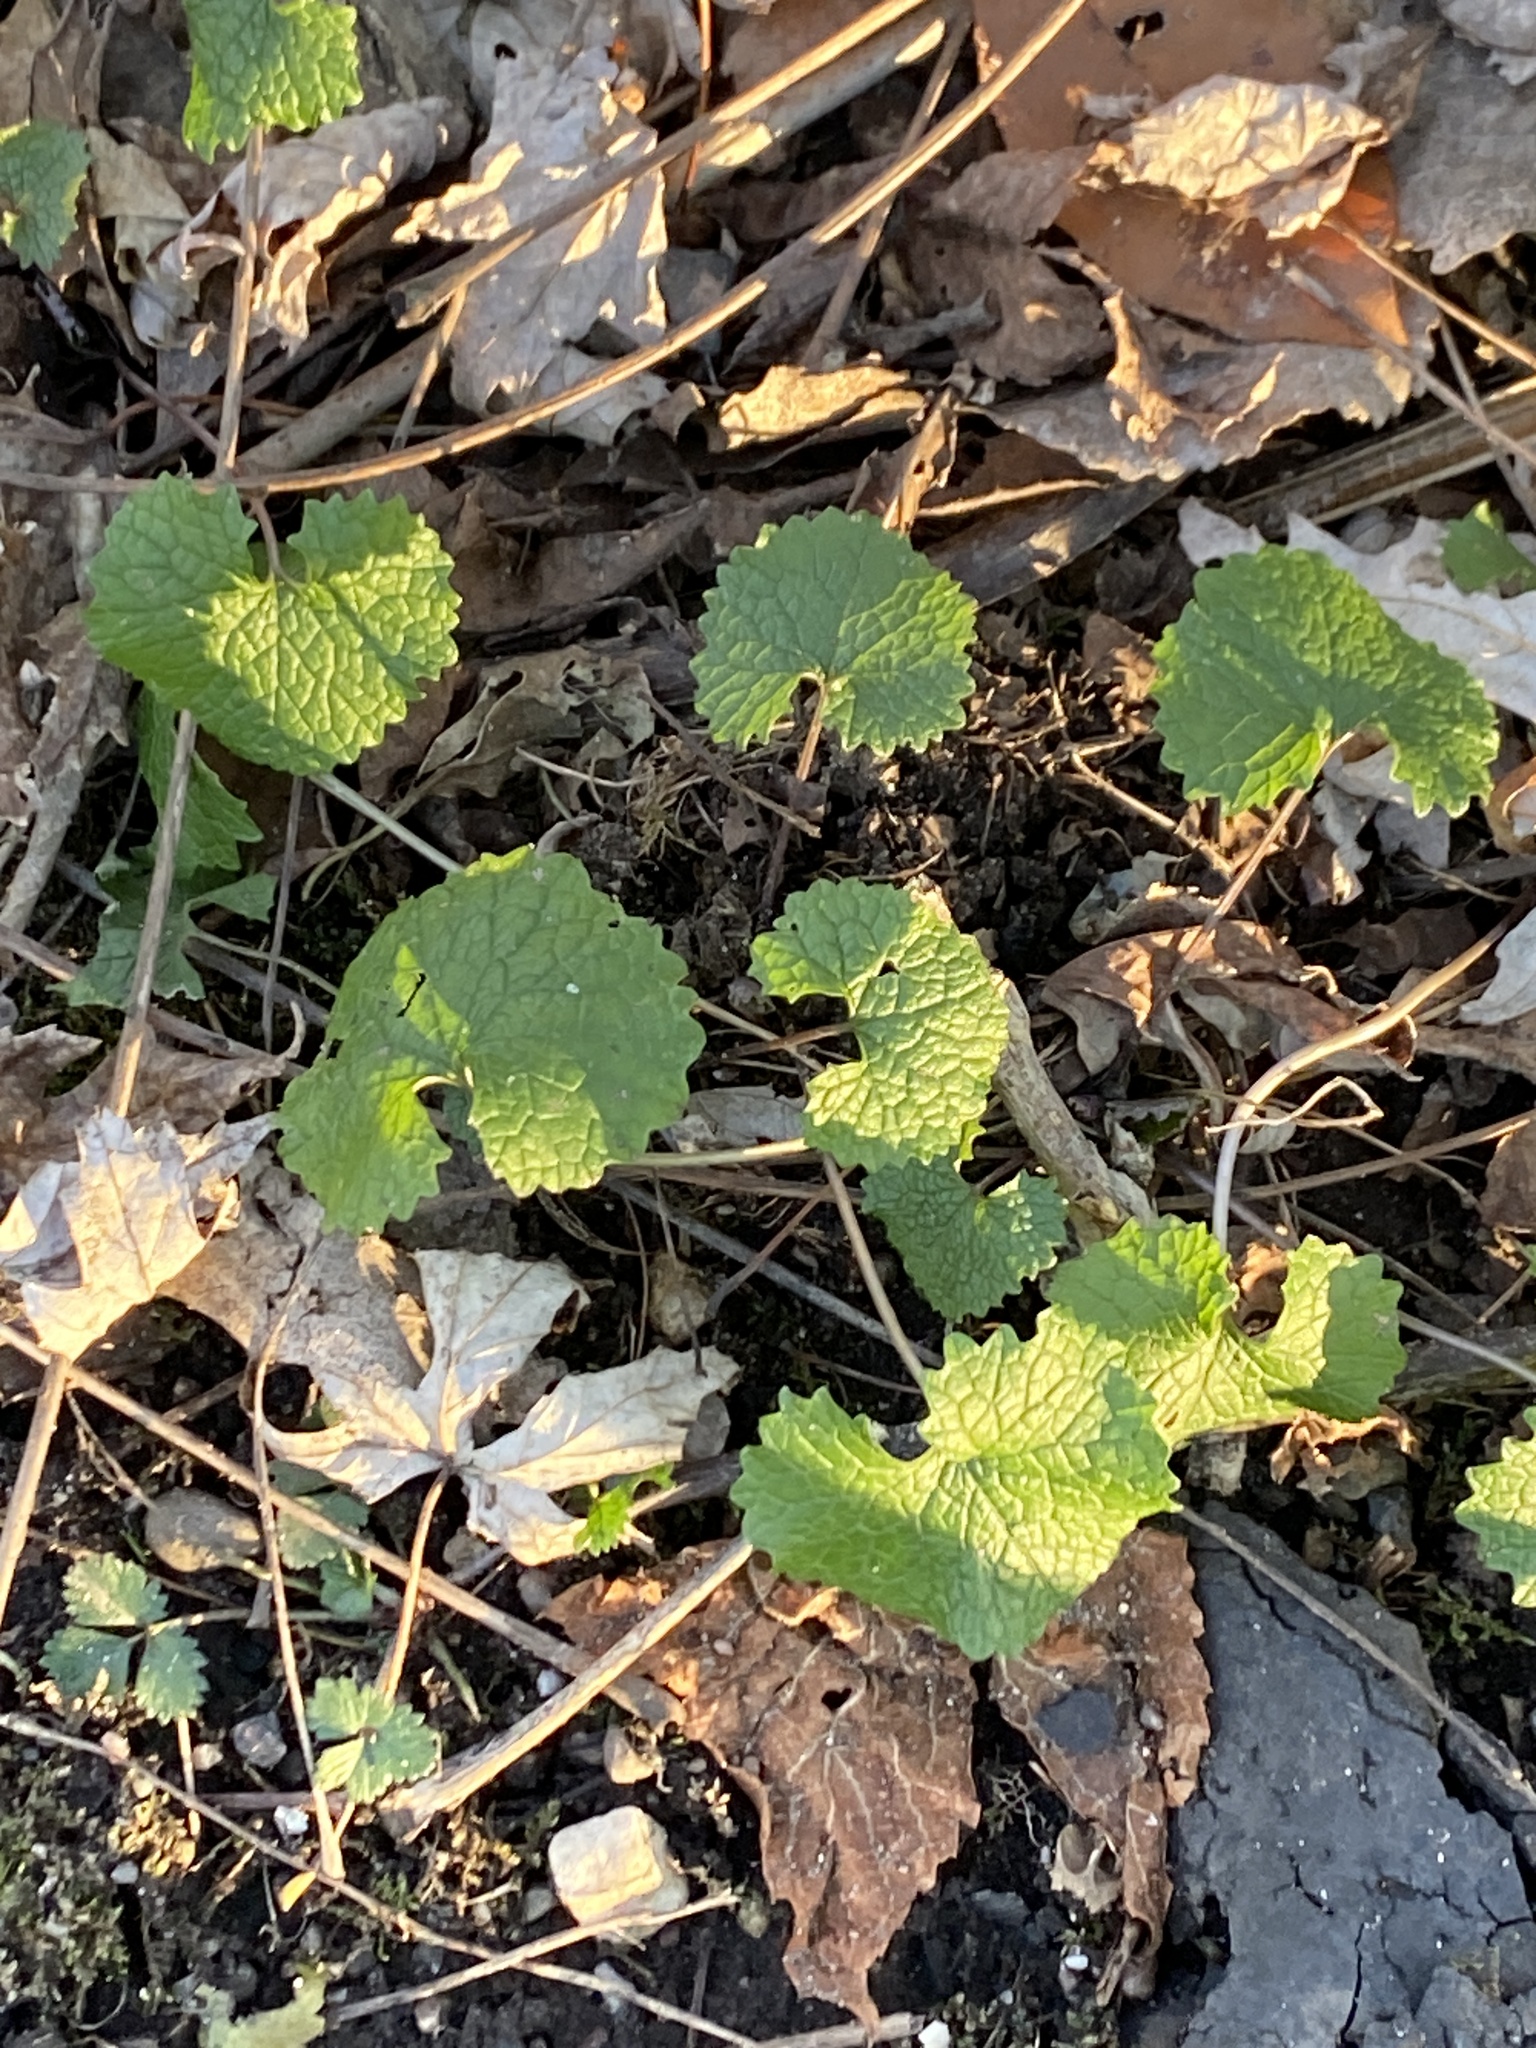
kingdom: Plantae
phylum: Tracheophyta
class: Magnoliopsida
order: Brassicales
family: Brassicaceae
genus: Alliaria
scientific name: Alliaria petiolata
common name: Garlic mustard
